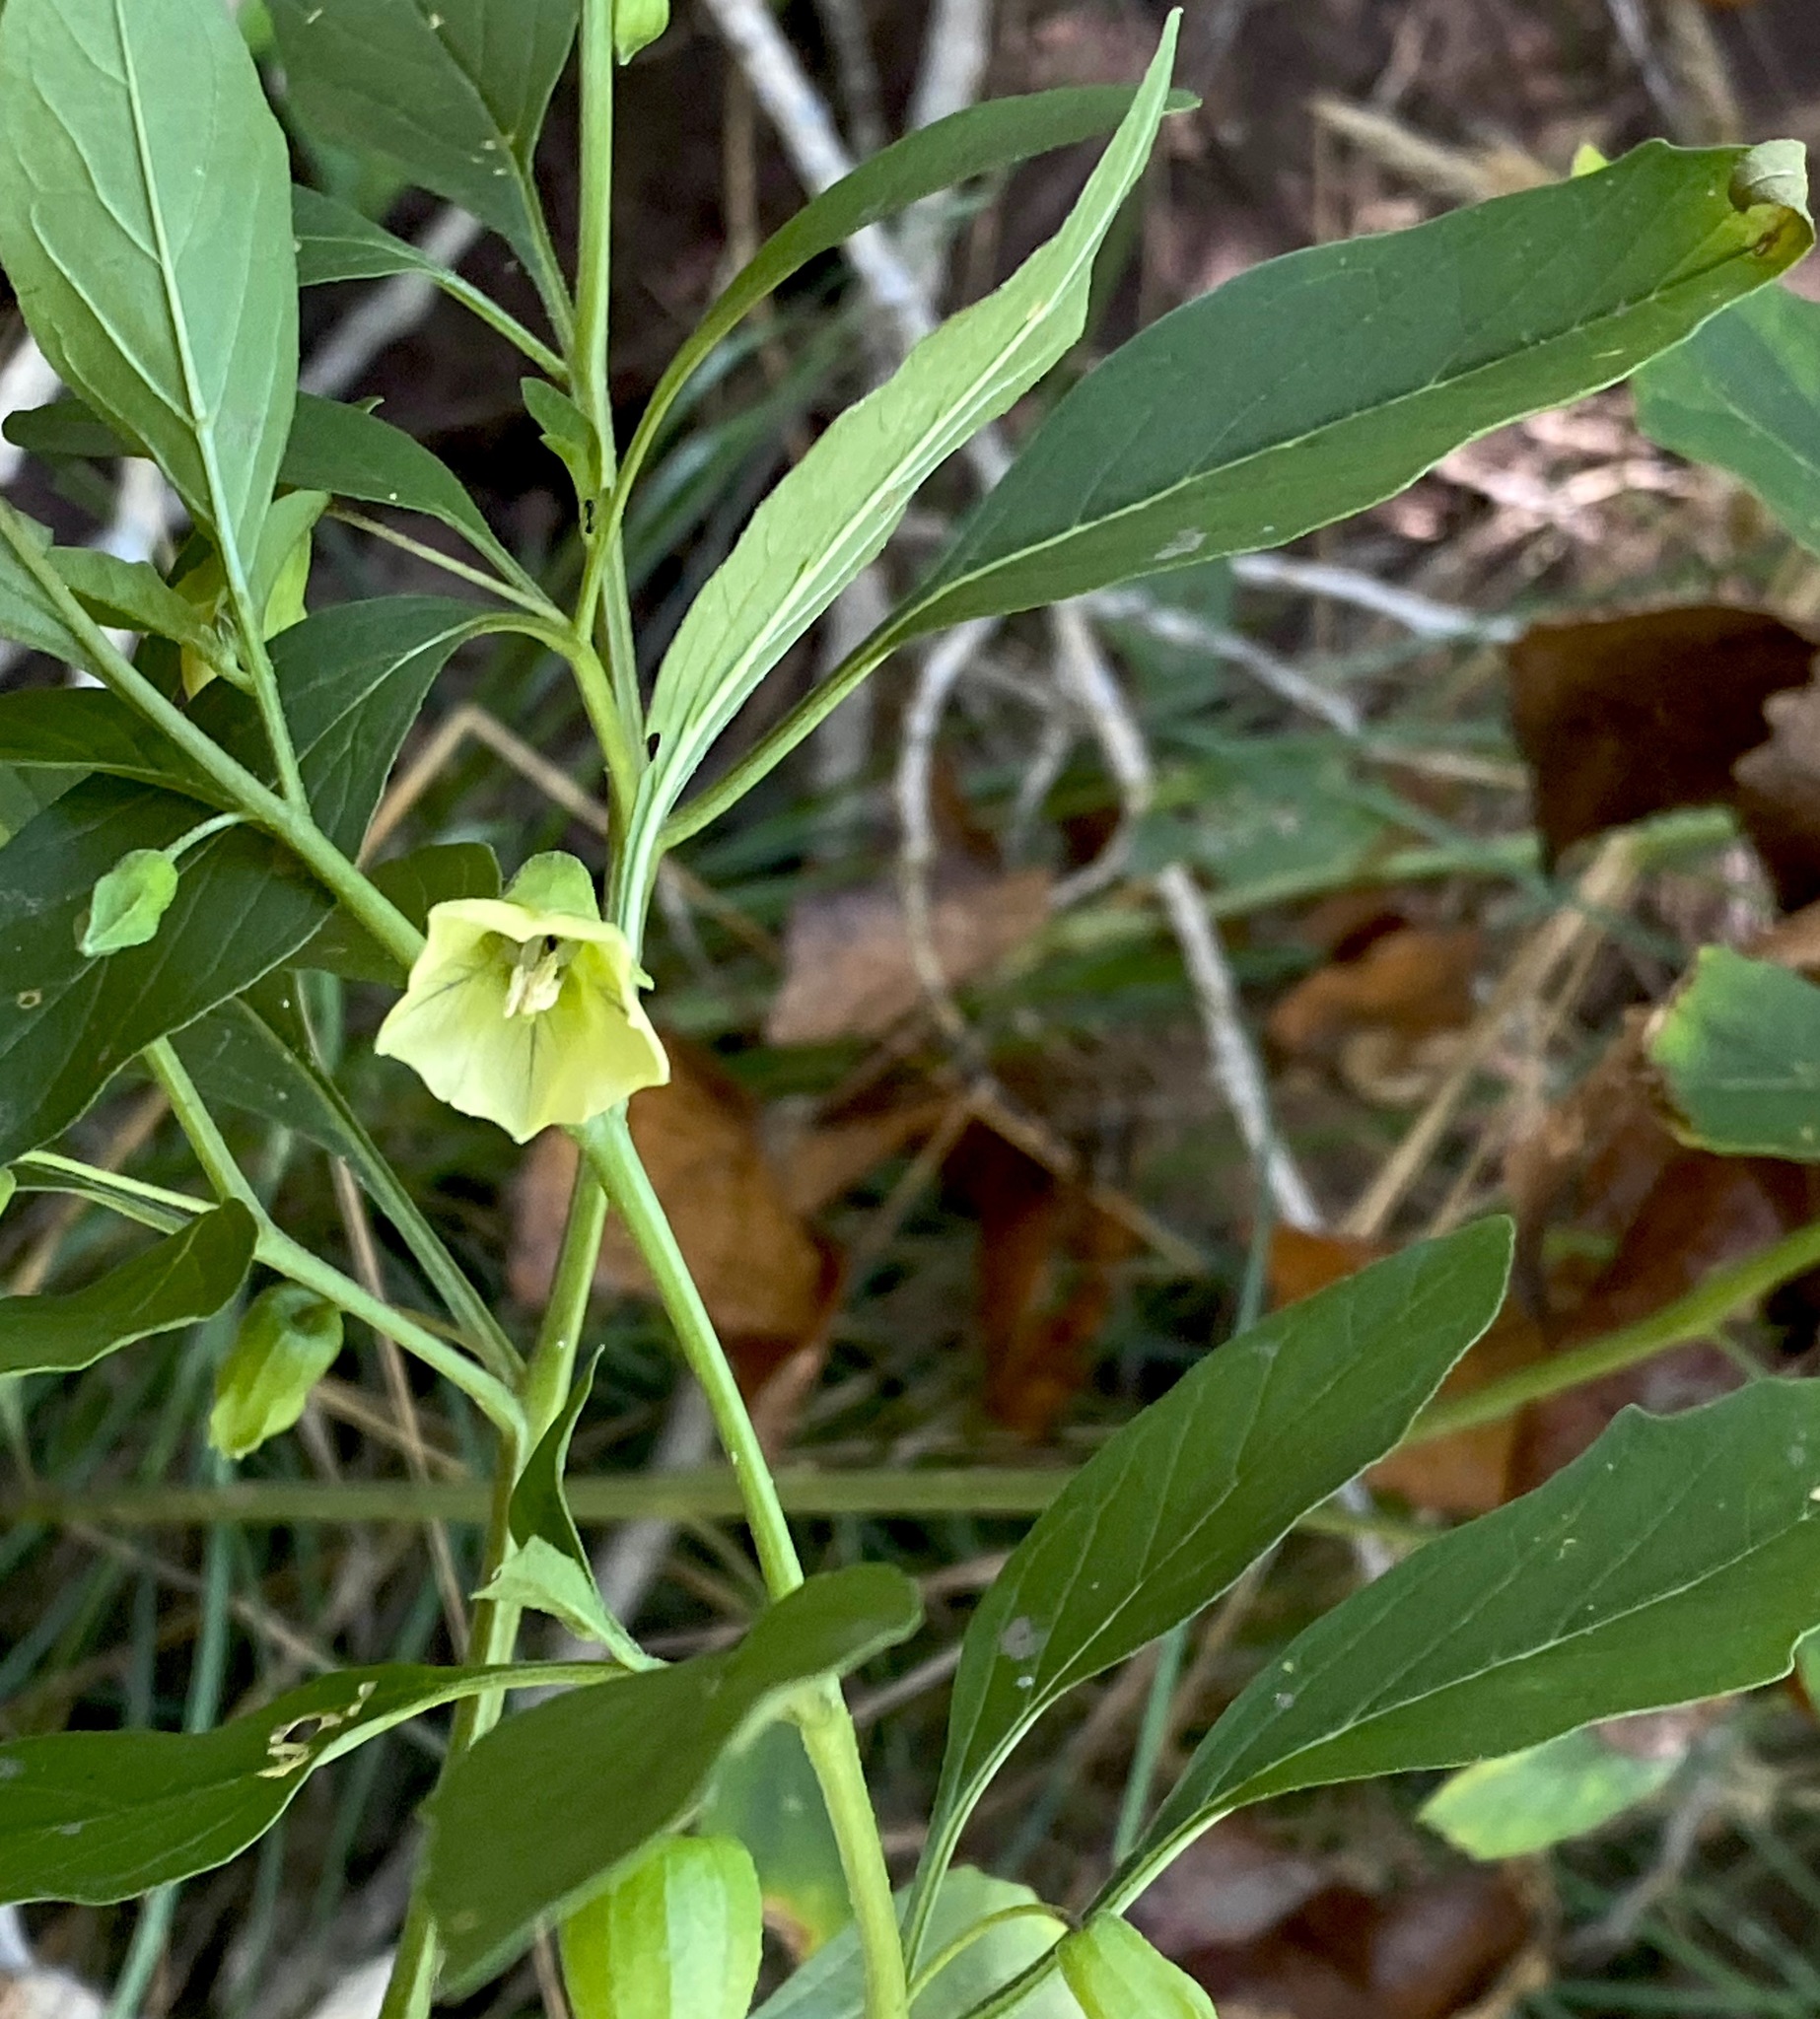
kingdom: Plantae
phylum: Tracheophyta
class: Magnoliopsida
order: Solanales
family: Solanaceae
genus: Physalis
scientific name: Physalis longifolia
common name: Common ground-cherry
